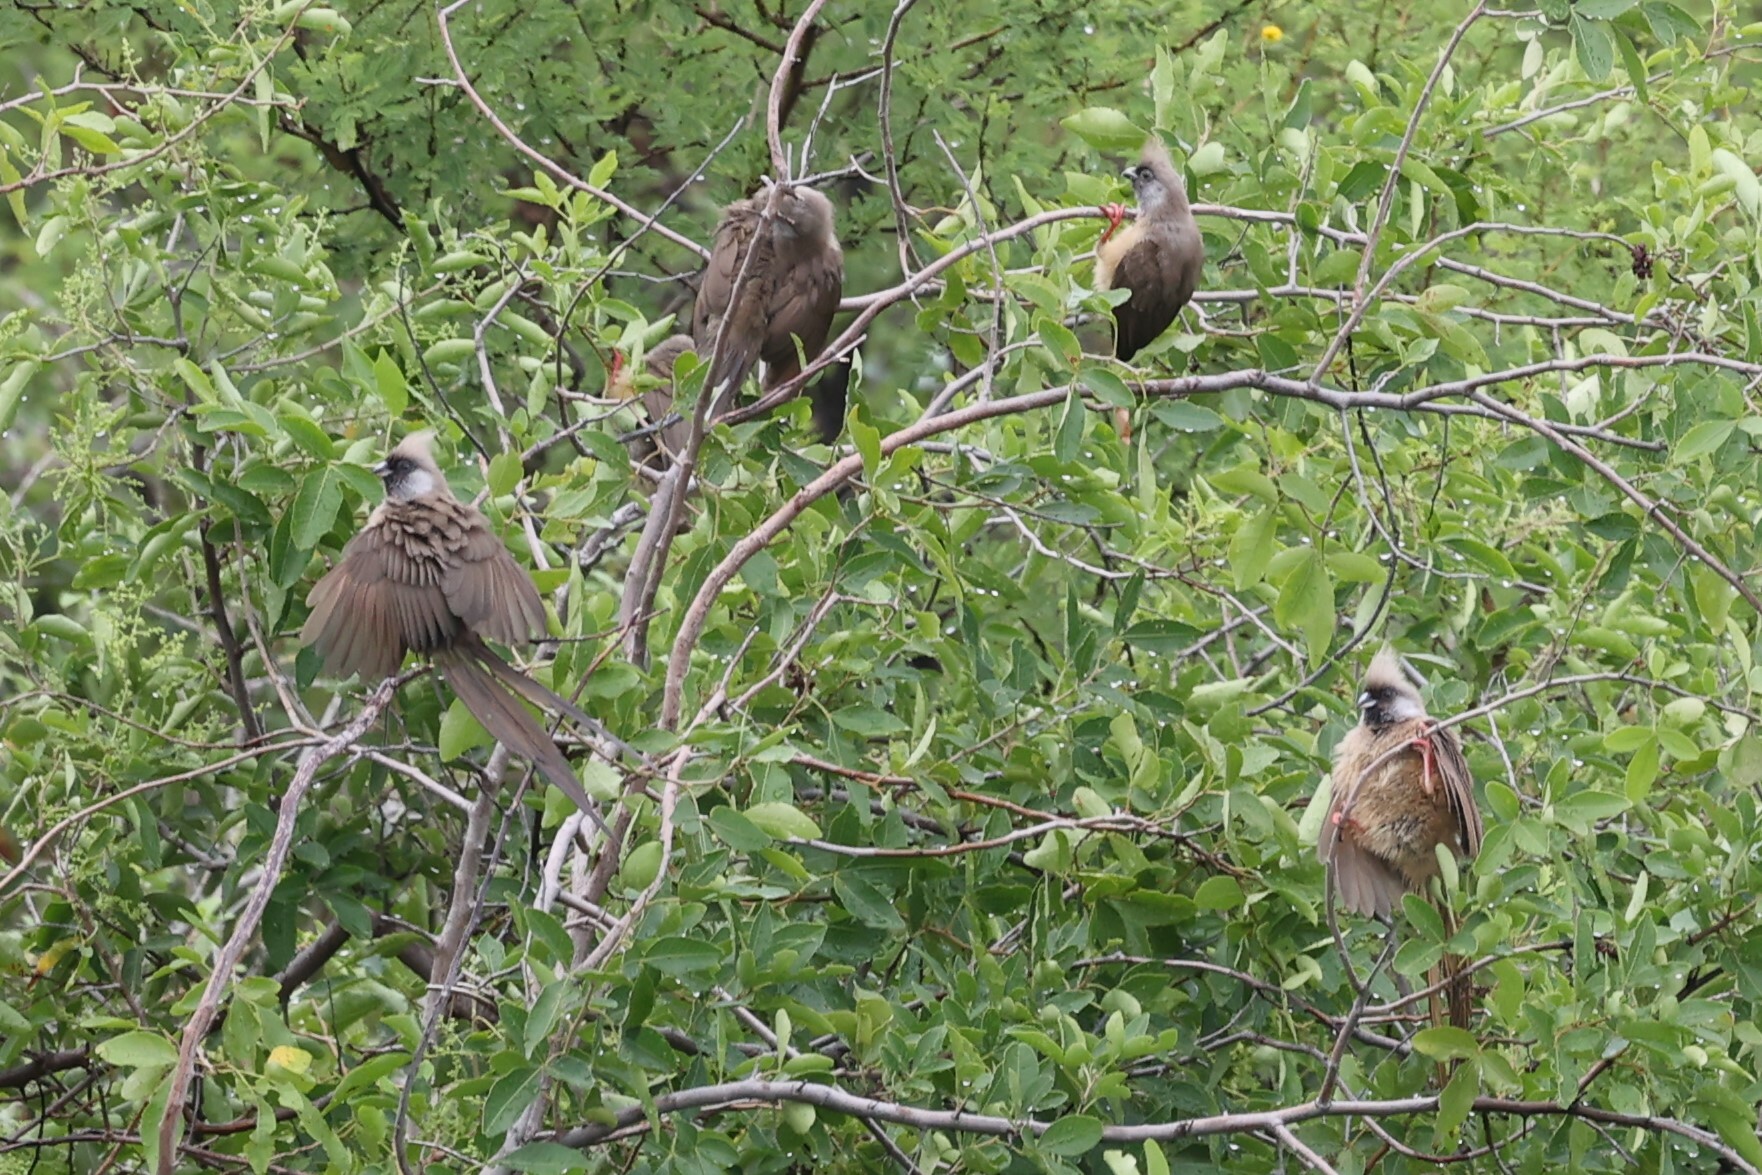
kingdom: Animalia
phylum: Chordata
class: Aves
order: Coliiformes
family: Coliidae
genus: Colius
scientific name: Colius striatus
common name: Speckled mousebird
